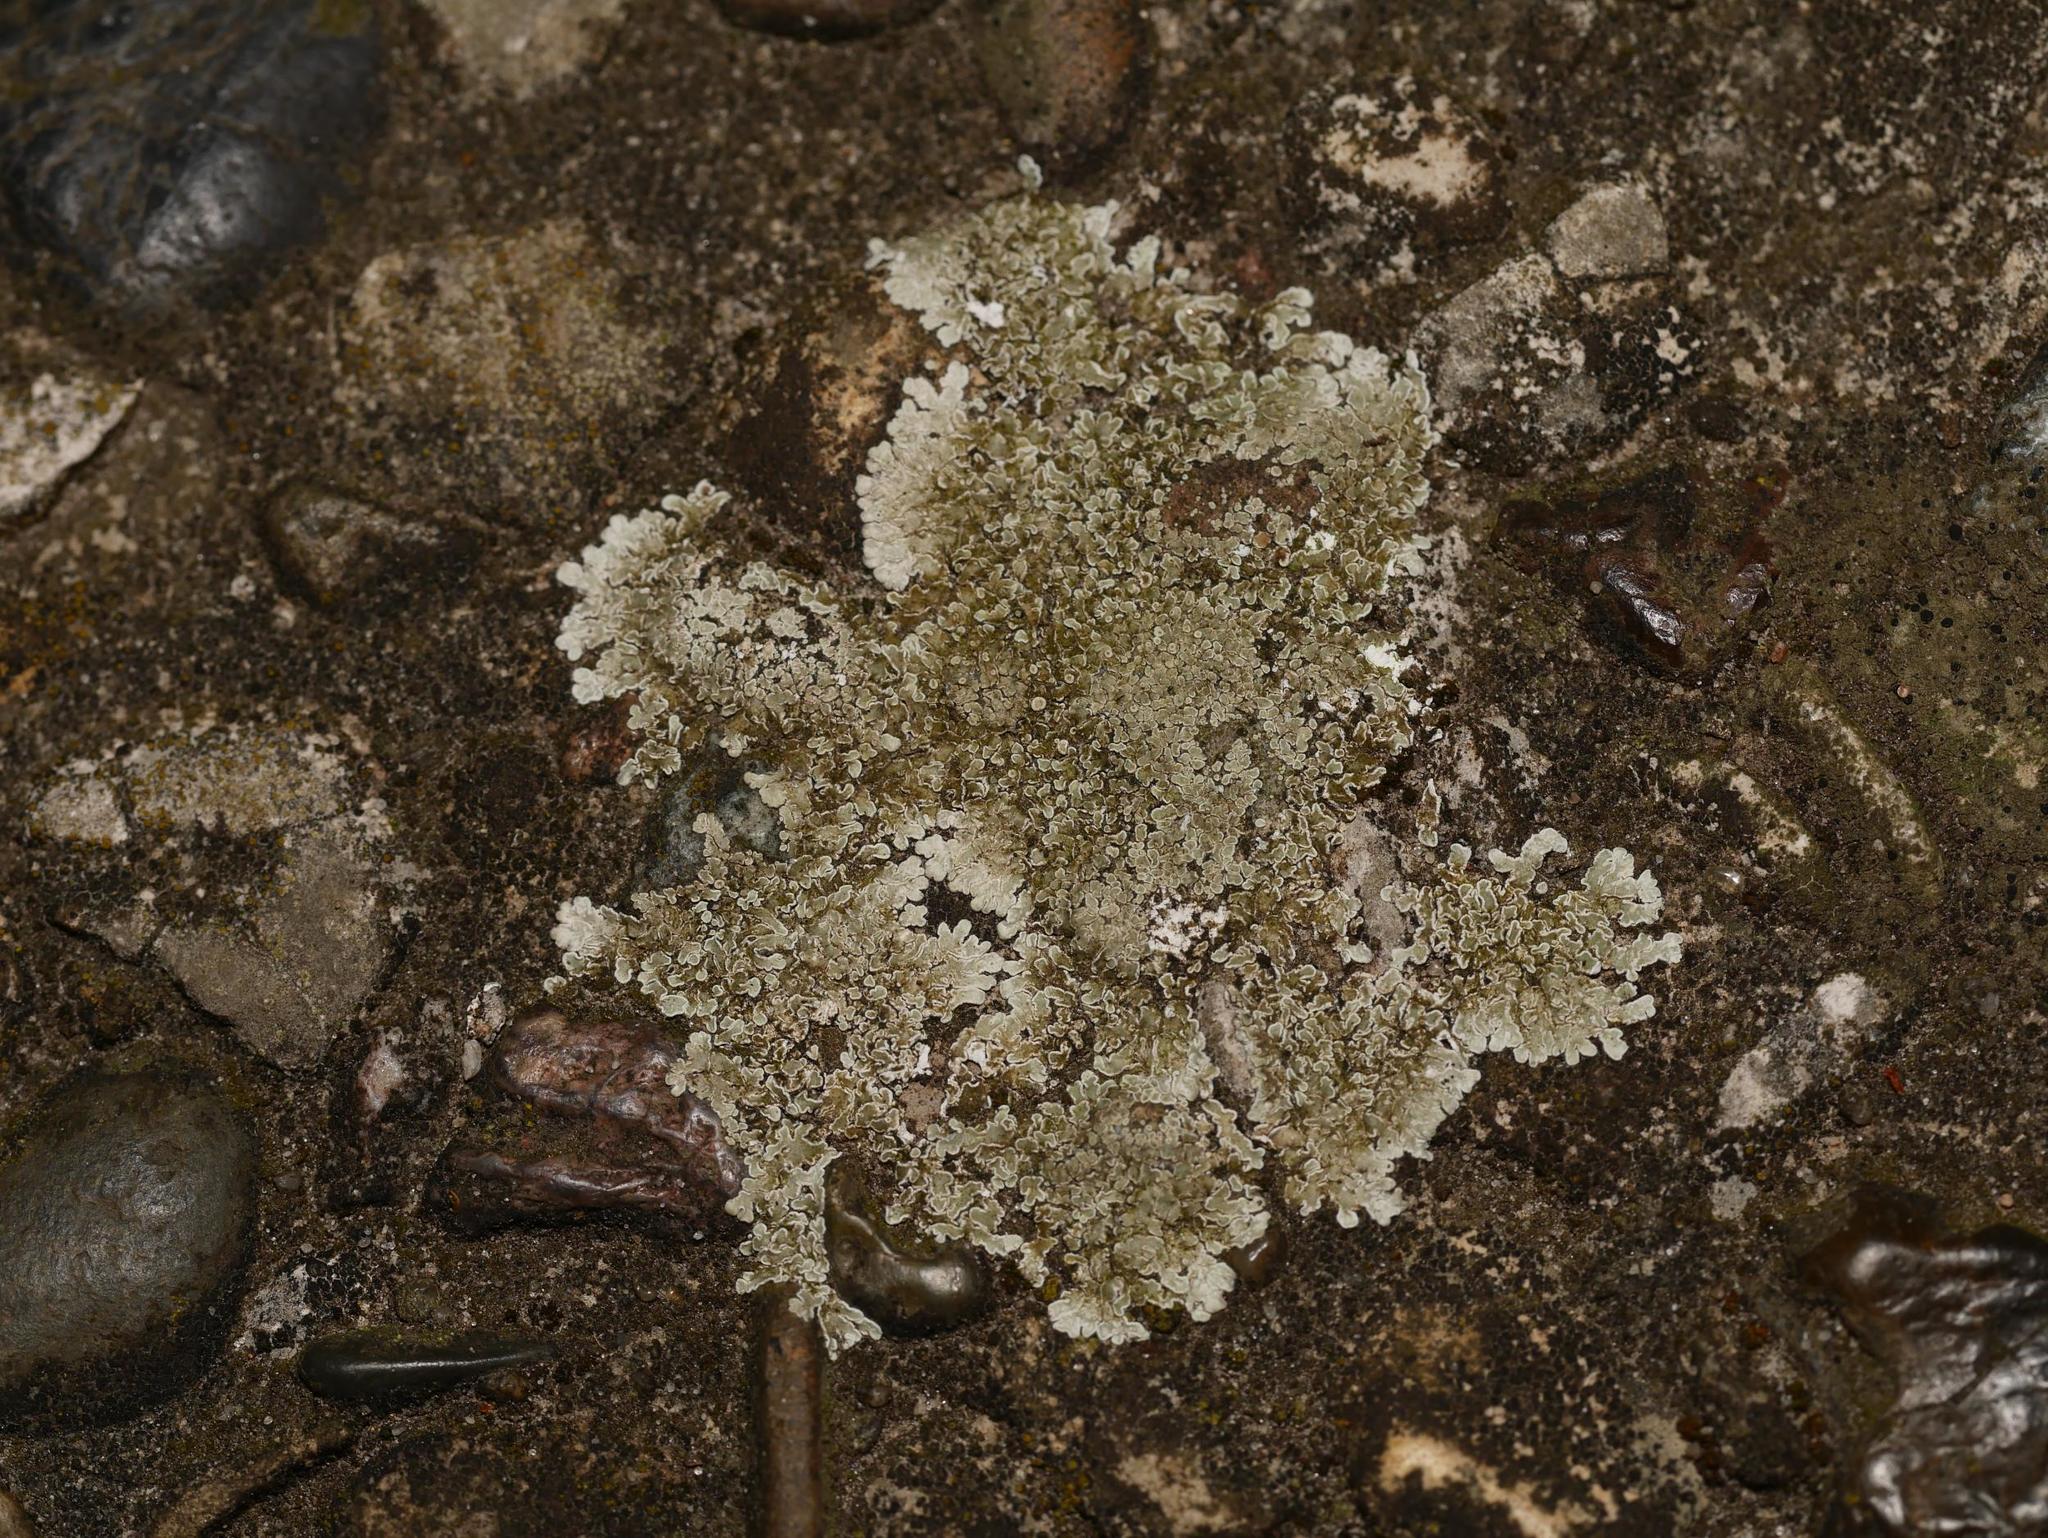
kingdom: Fungi
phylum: Ascomycota
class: Lecanoromycetes
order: Lecanorales
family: Lecanoraceae
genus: Protoparmeliopsis
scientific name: Protoparmeliopsis muralis
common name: Stonewall rim lichen
